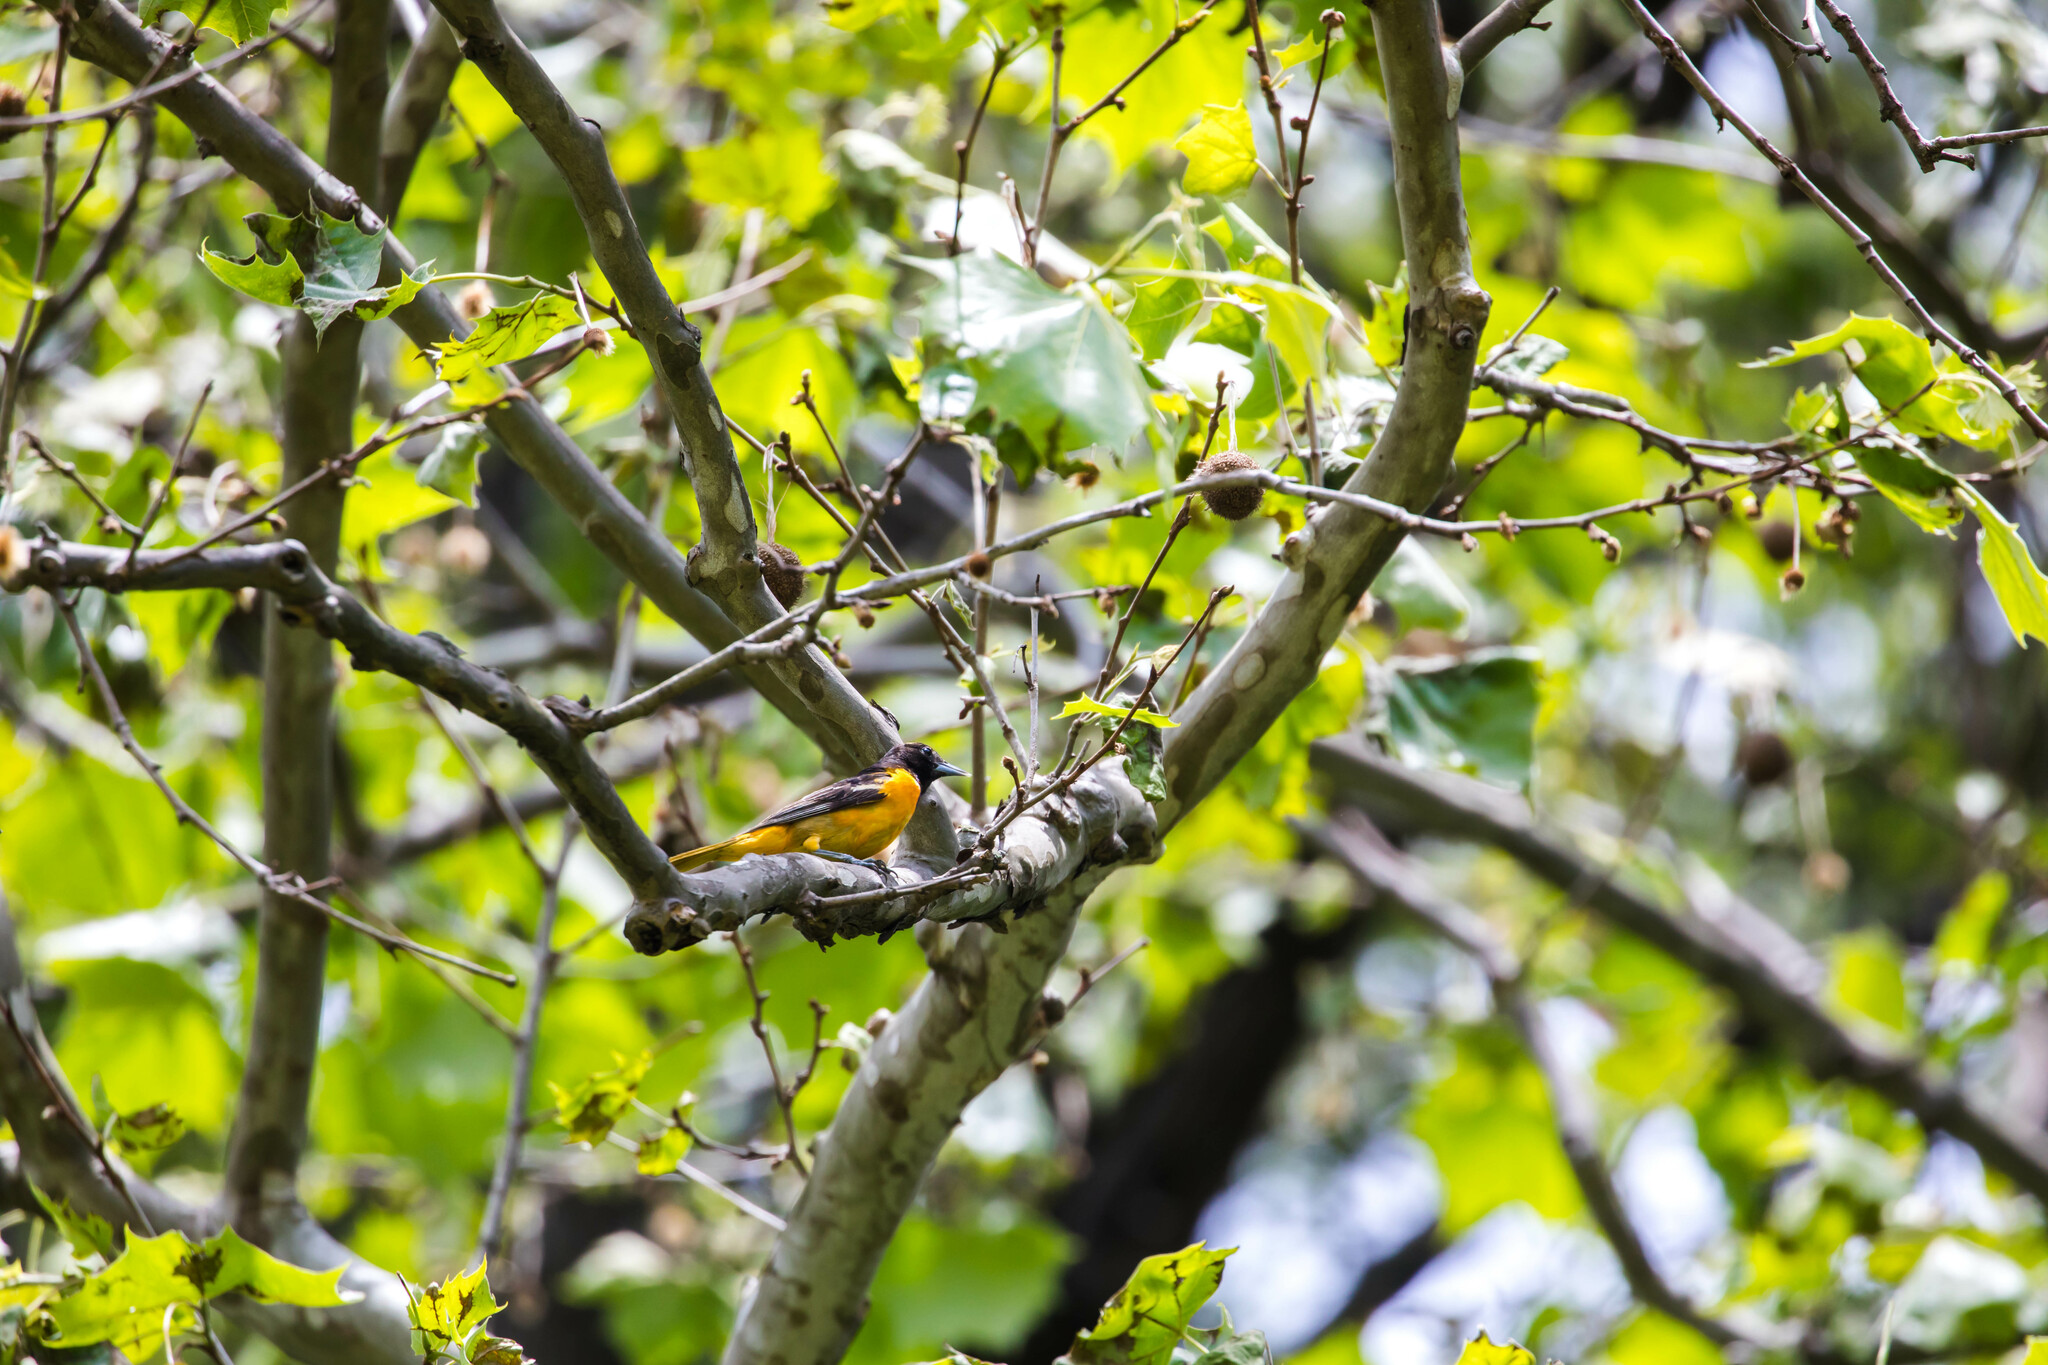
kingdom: Animalia
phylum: Chordata
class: Aves
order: Passeriformes
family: Icteridae
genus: Icterus
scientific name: Icterus galbula
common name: Baltimore oriole
